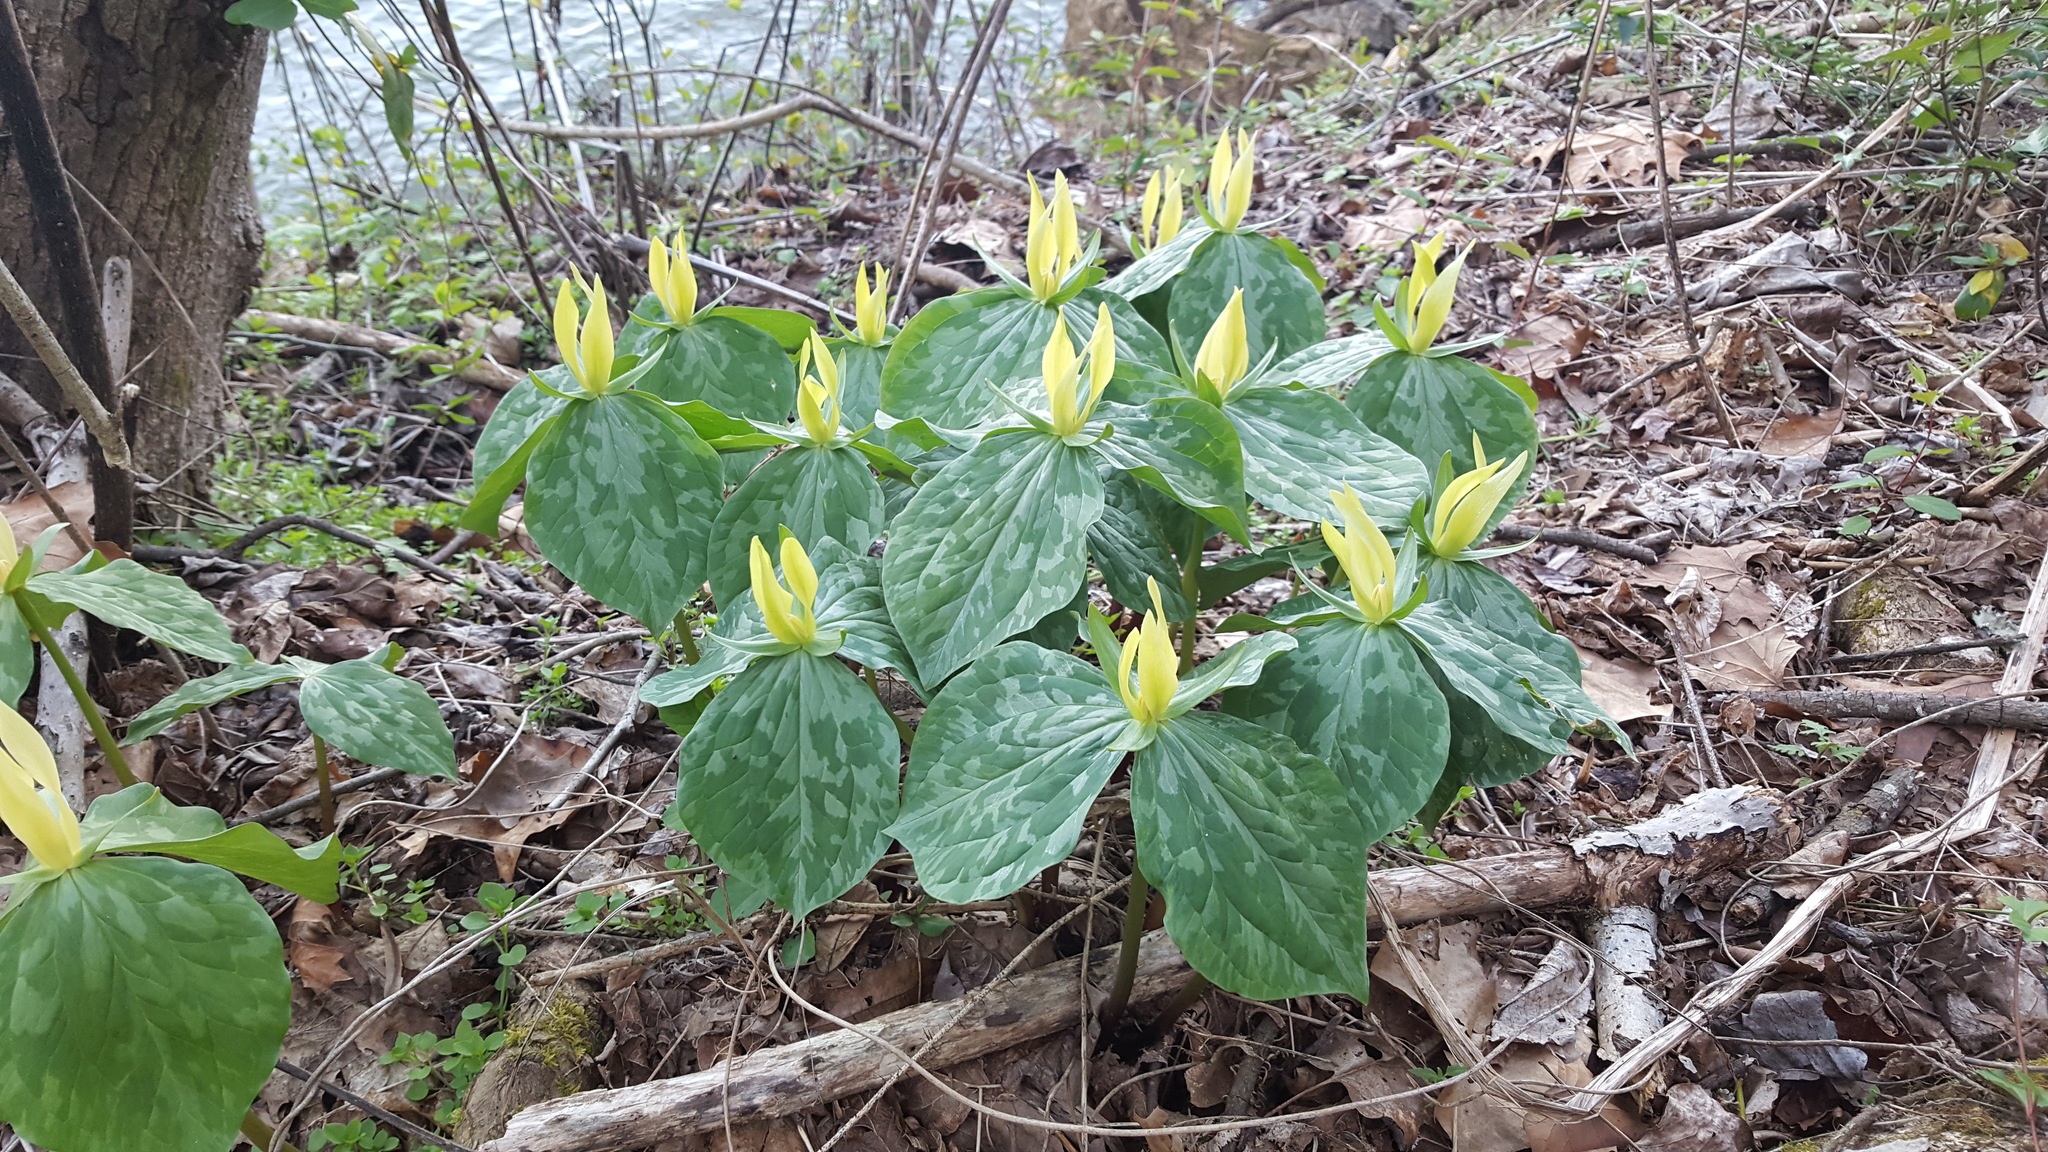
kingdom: Plantae
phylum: Tracheophyta
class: Liliopsida
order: Liliales
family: Melanthiaceae
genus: Trillium
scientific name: Trillium luteum
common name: Wax trillium
